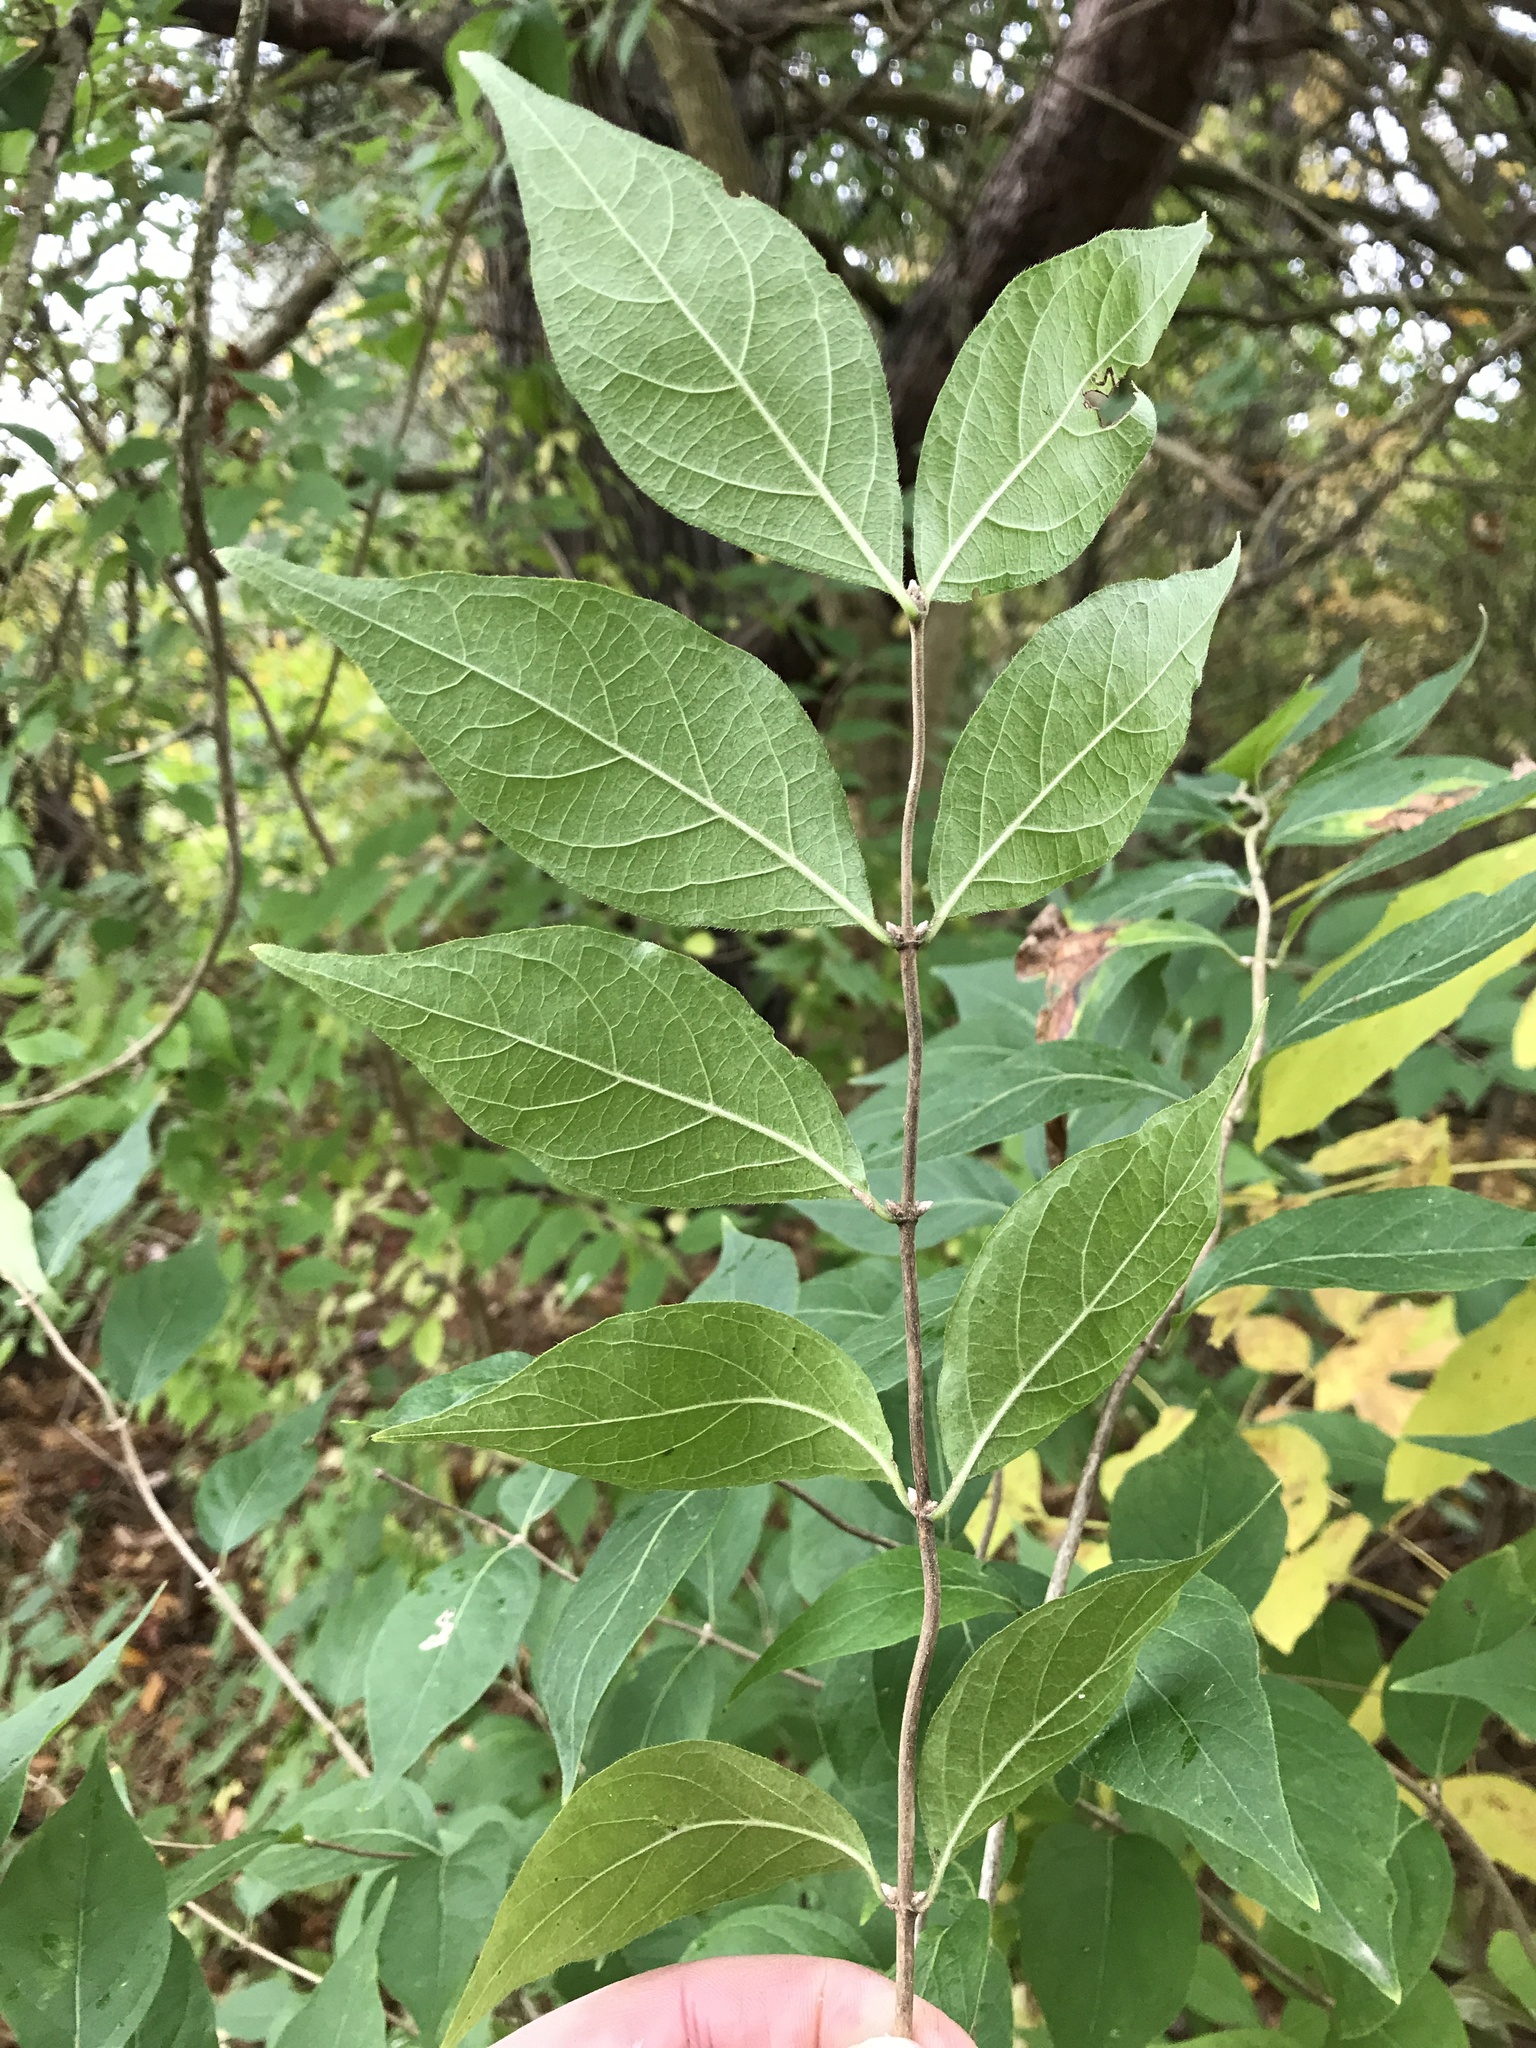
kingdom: Plantae
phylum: Tracheophyta
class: Magnoliopsida
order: Dipsacales
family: Caprifoliaceae
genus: Lonicera
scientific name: Lonicera maackii
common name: Amur honeysuckle
